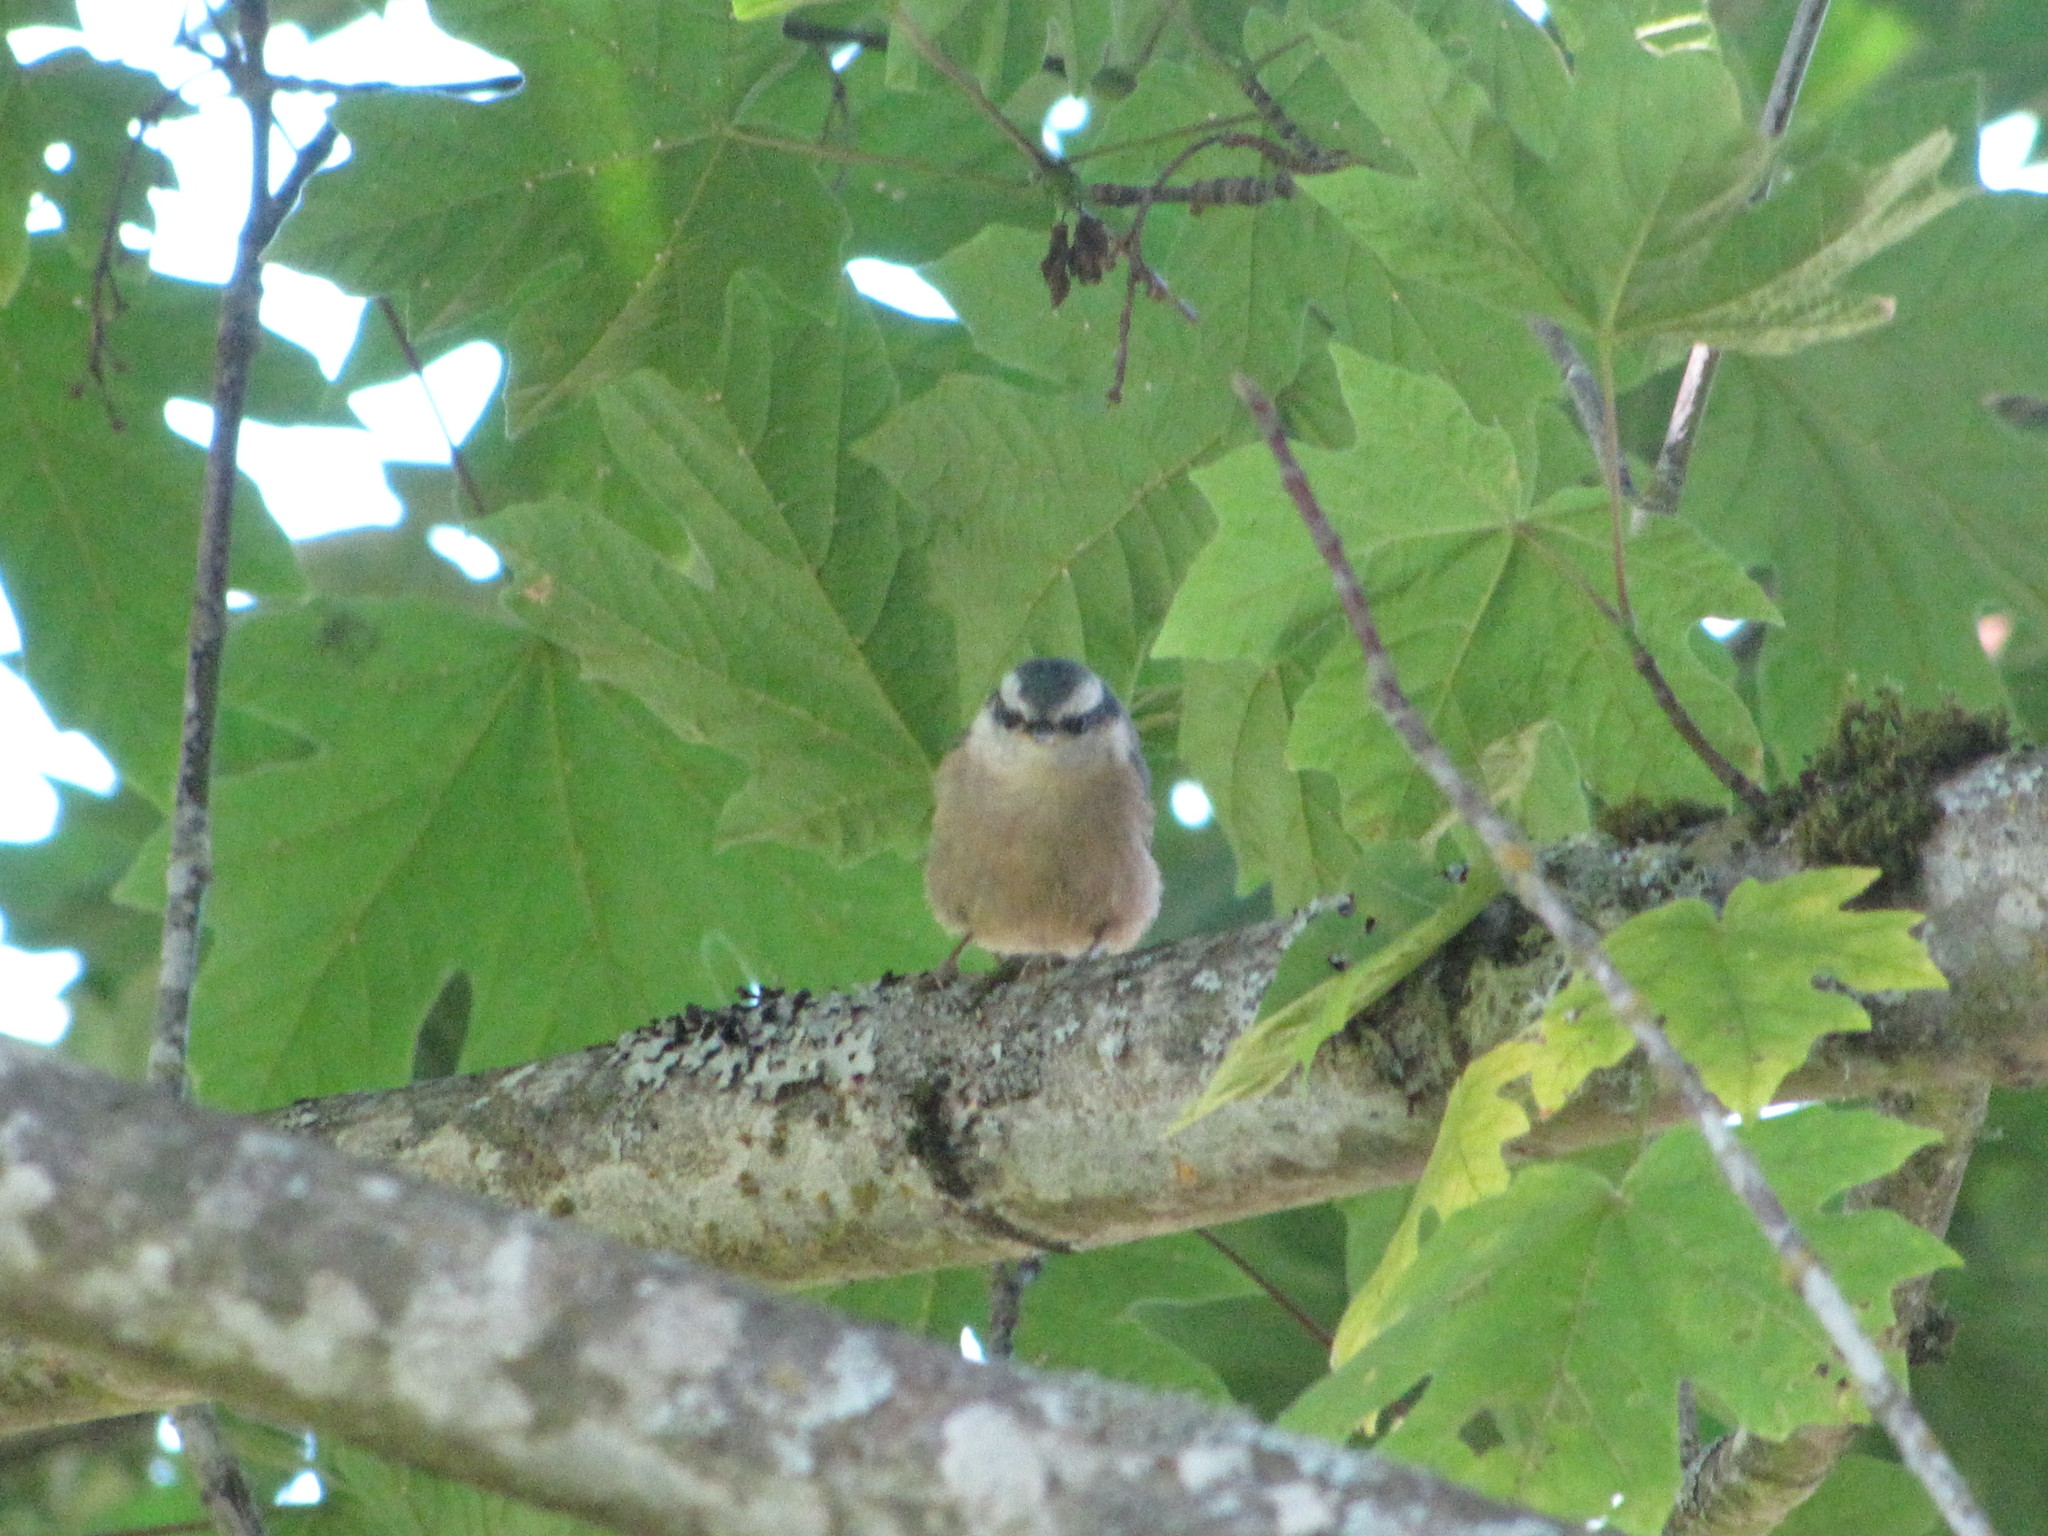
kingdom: Animalia
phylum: Chordata
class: Aves
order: Passeriformes
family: Sittidae
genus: Sitta
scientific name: Sitta canadensis
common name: Red-breasted nuthatch
